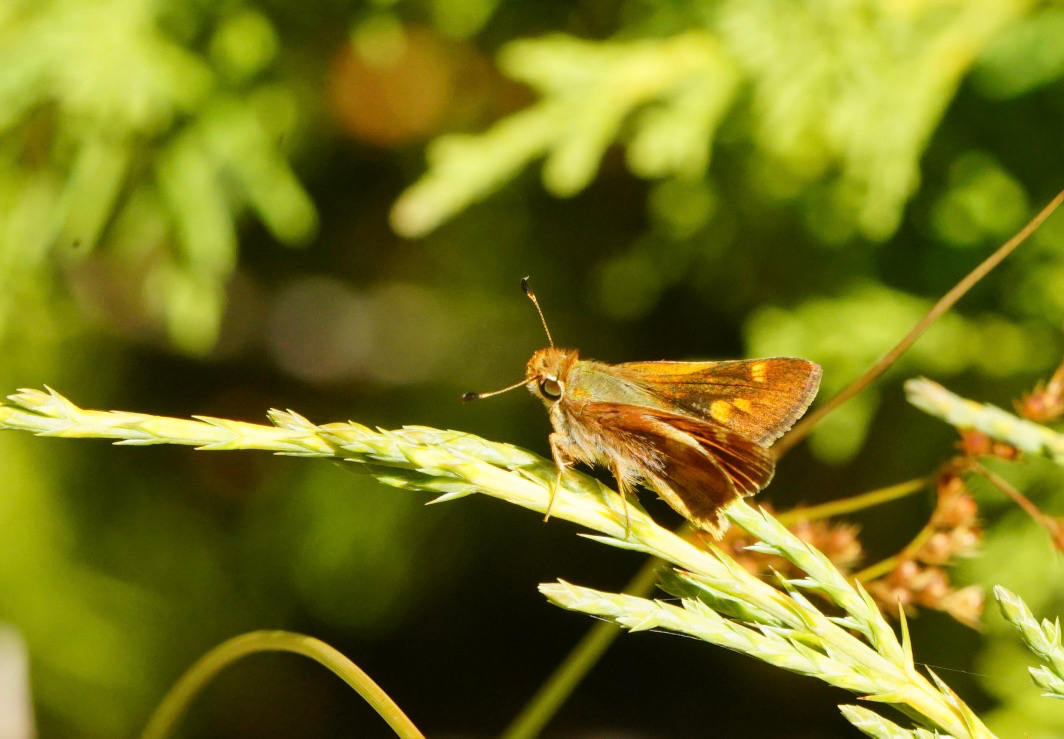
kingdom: Animalia
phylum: Arthropoda
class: Insecta
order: Lepidoptera
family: Hesperiidae
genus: Lon
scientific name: Lon melane
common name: Umber skipper
